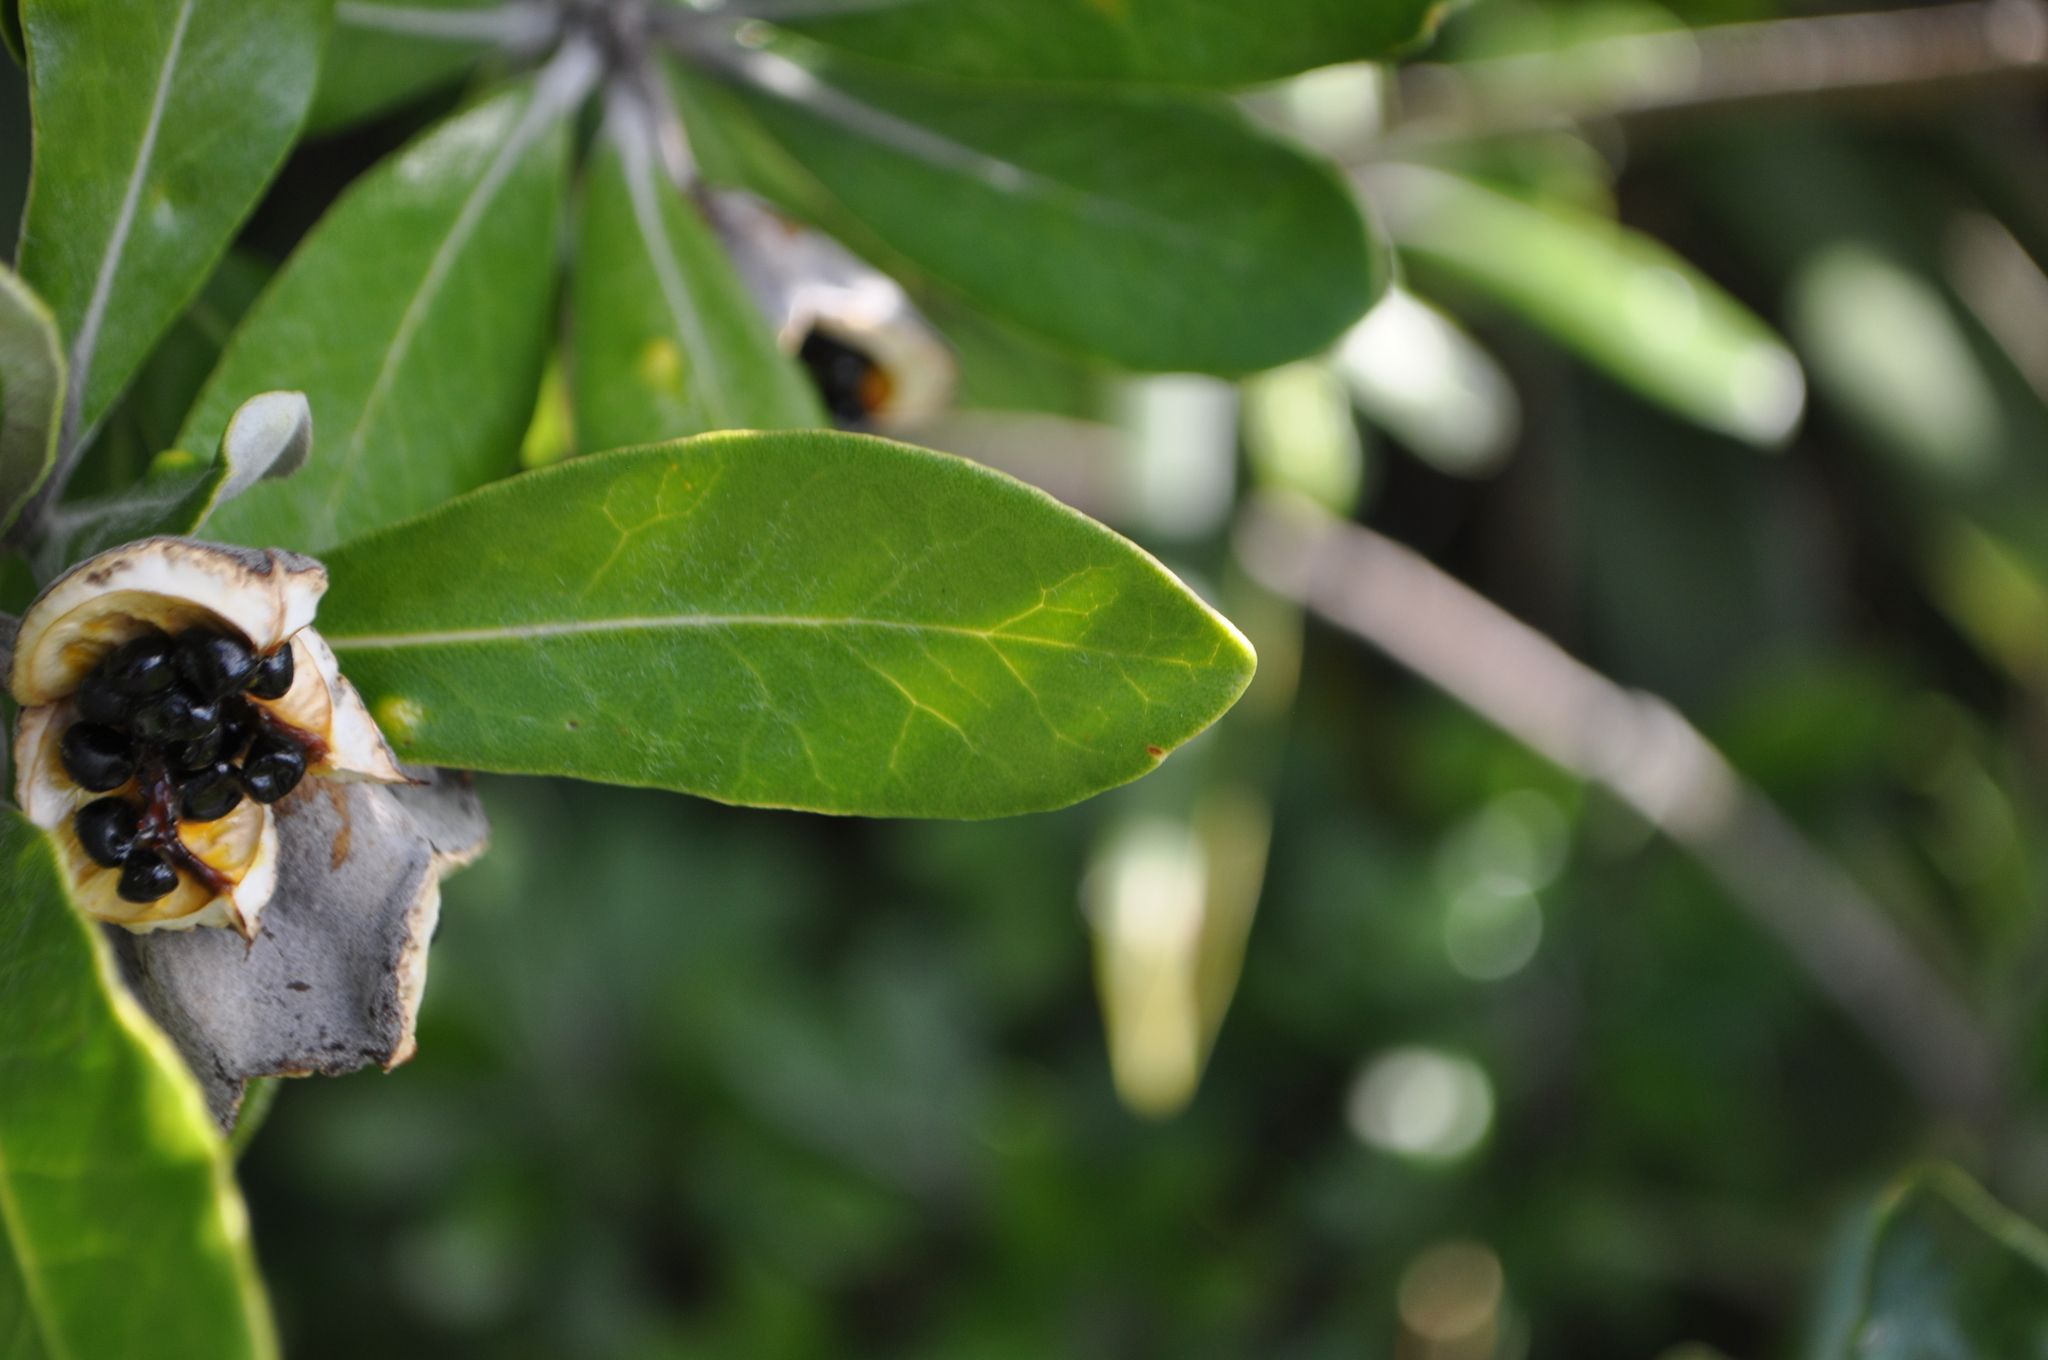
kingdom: Plantae
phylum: Tracheophyta
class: Magnoliopsida
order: Apiales
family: Pittosporaceae
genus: Pittosporum
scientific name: Pittosporum crassifolium
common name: Karo
